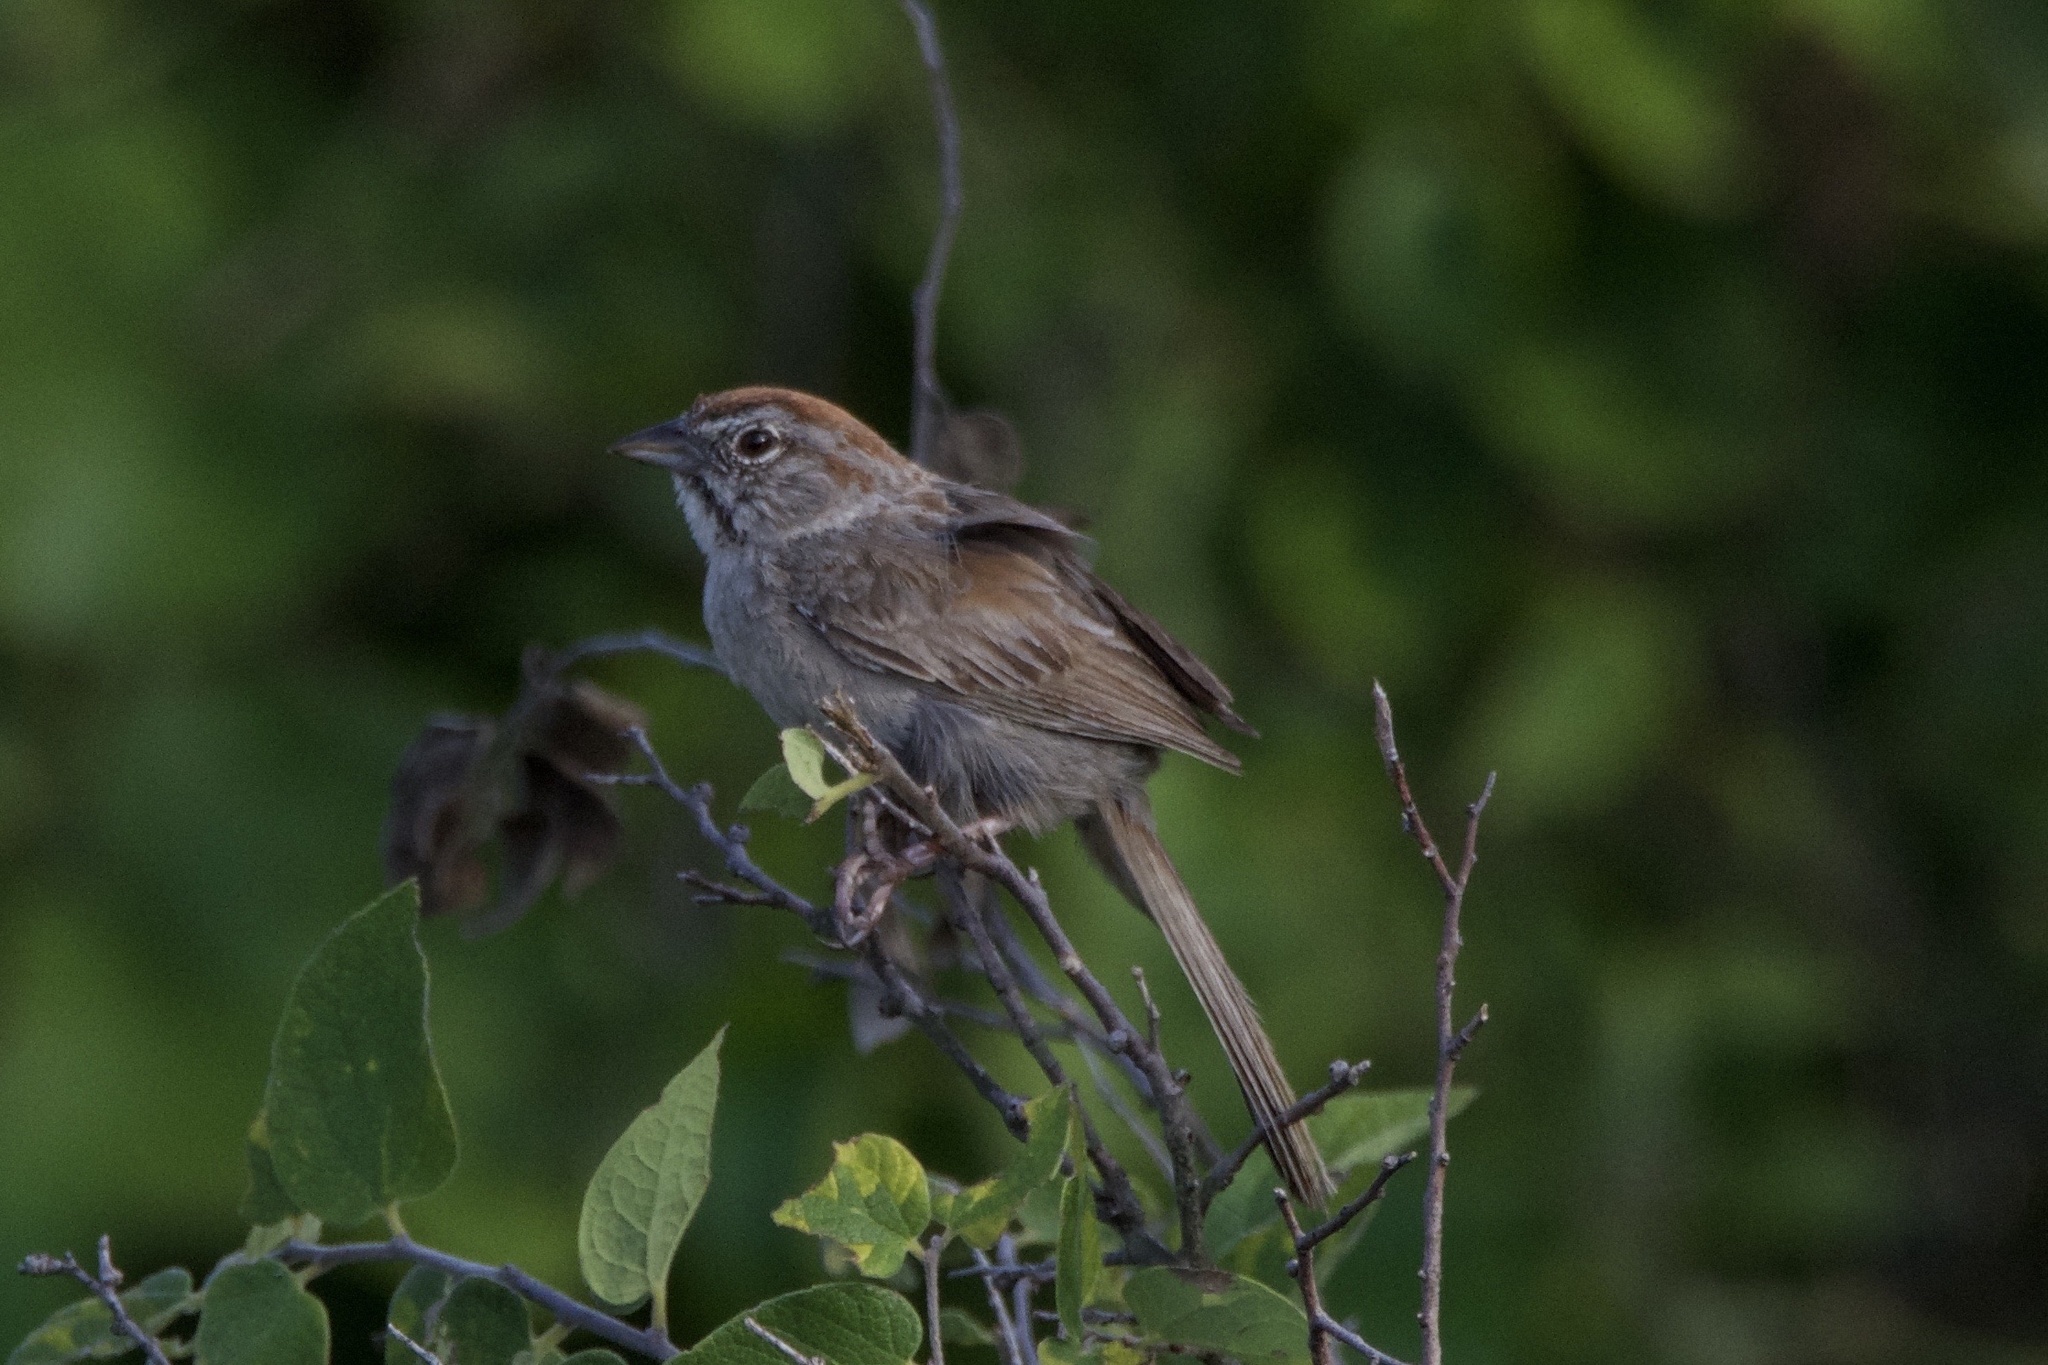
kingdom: Animalia
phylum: Chordata
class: Aves
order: Passeriformes
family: Passerellidae
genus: Aimophila
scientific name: Aimophila ruficeps
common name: Rufous-crowned sparrow
